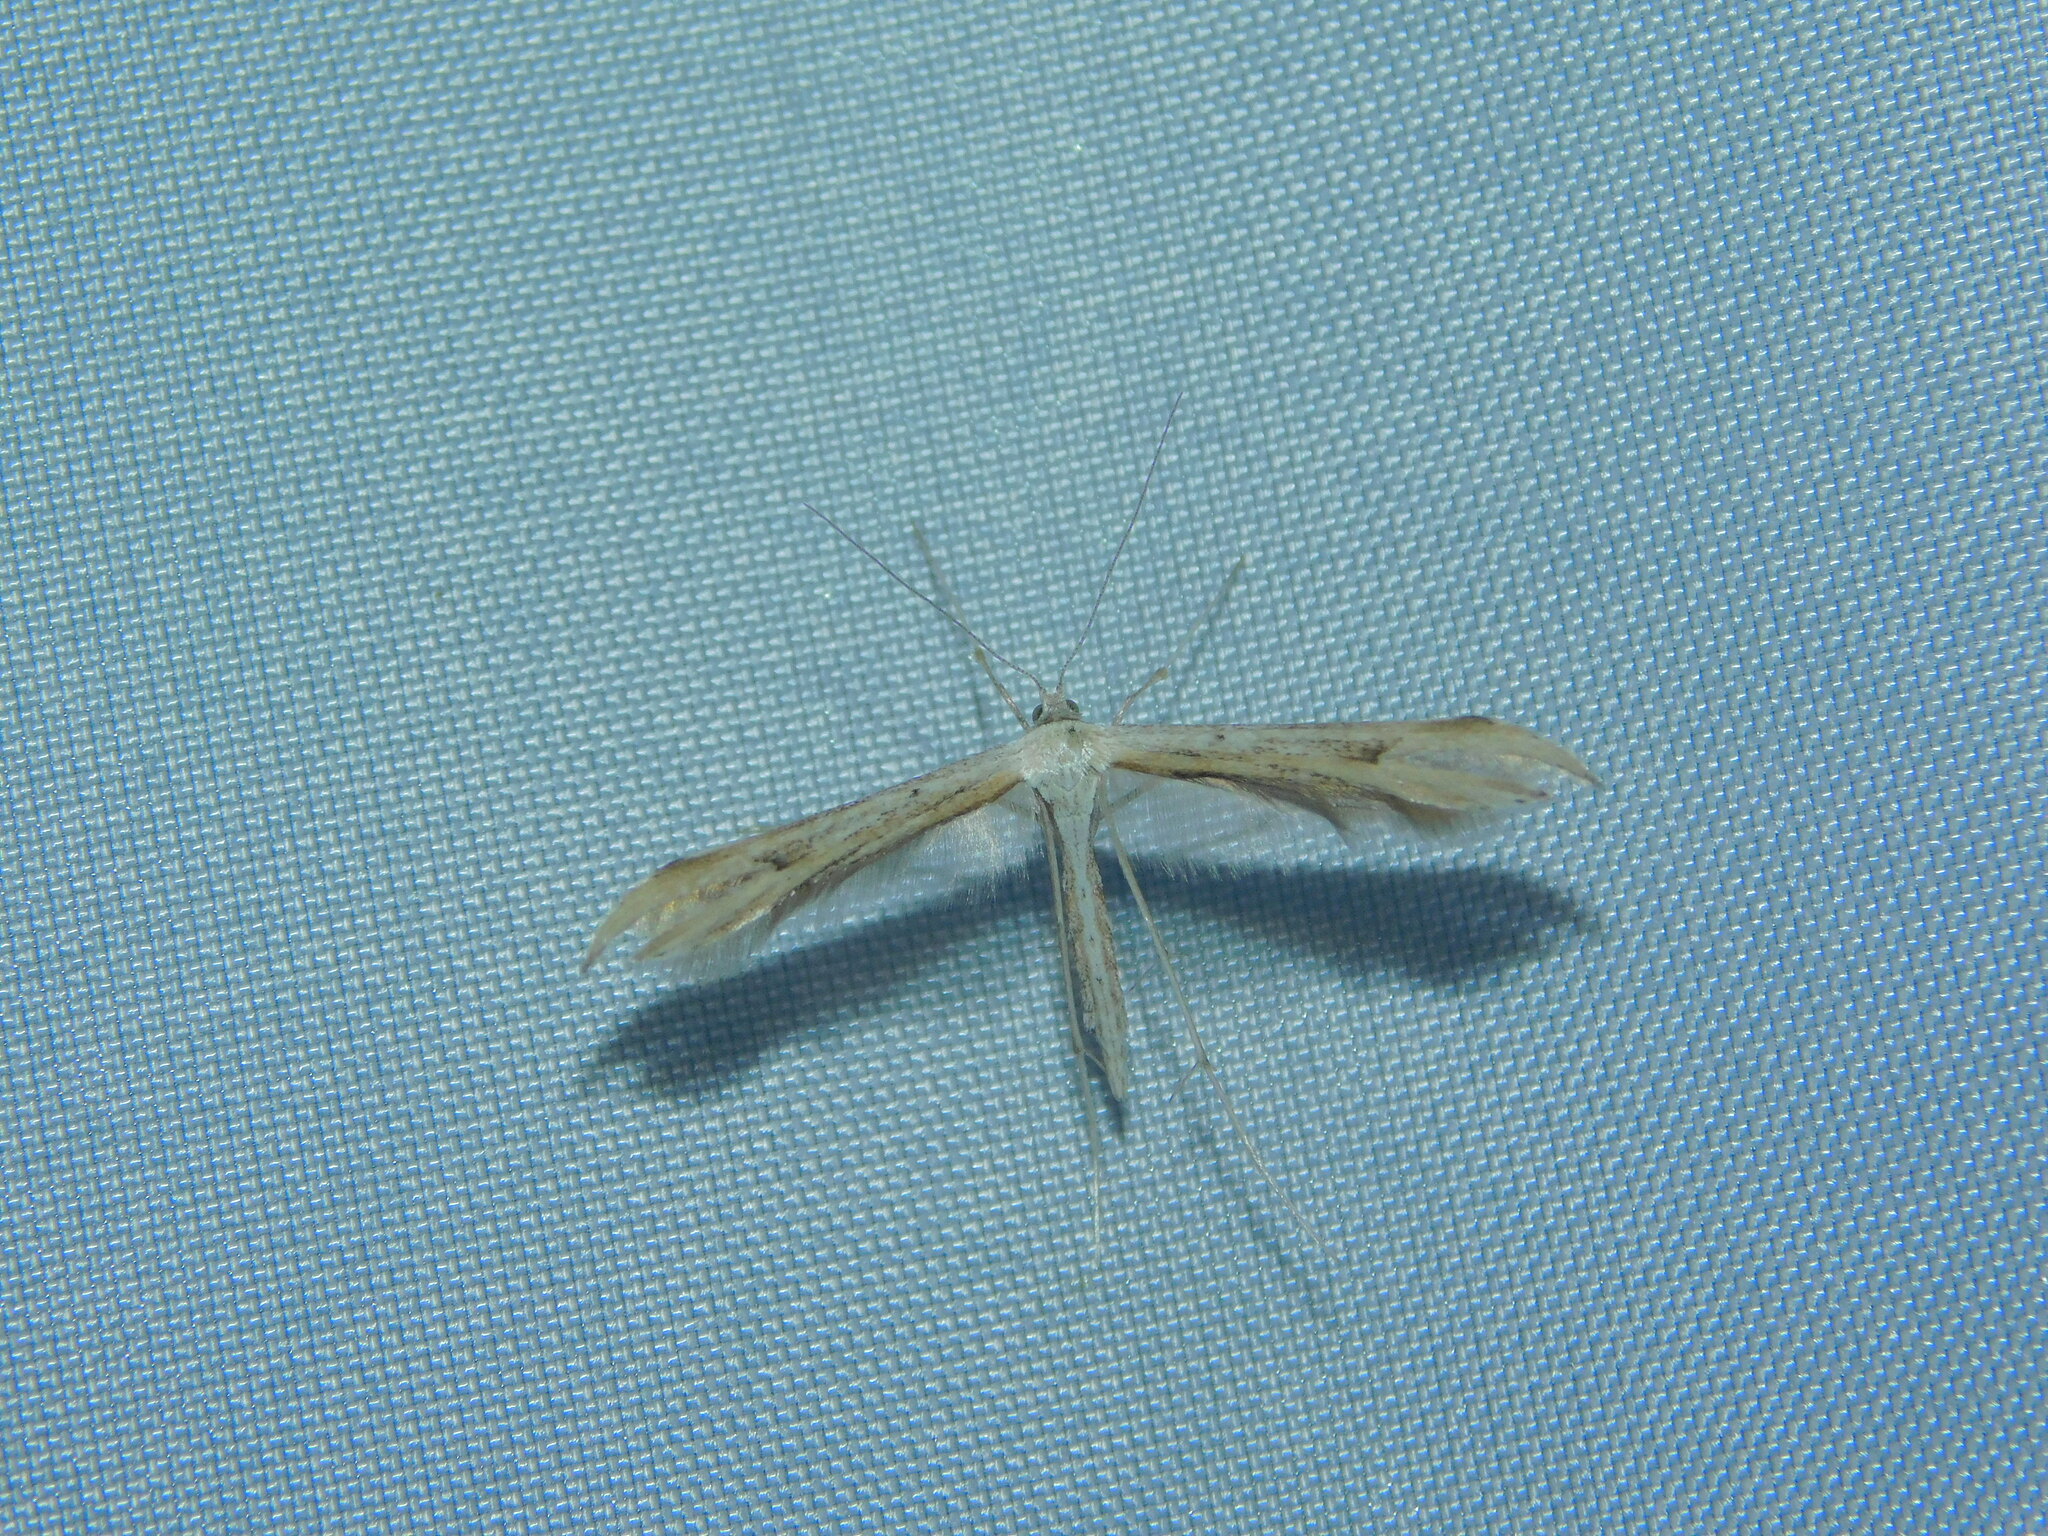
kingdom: Animalia
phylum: Arthropoda
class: Insecta
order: Lepidoptera
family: Pterophoridae
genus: Emmelina
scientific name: Emmelina monodactyla
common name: Common plume
